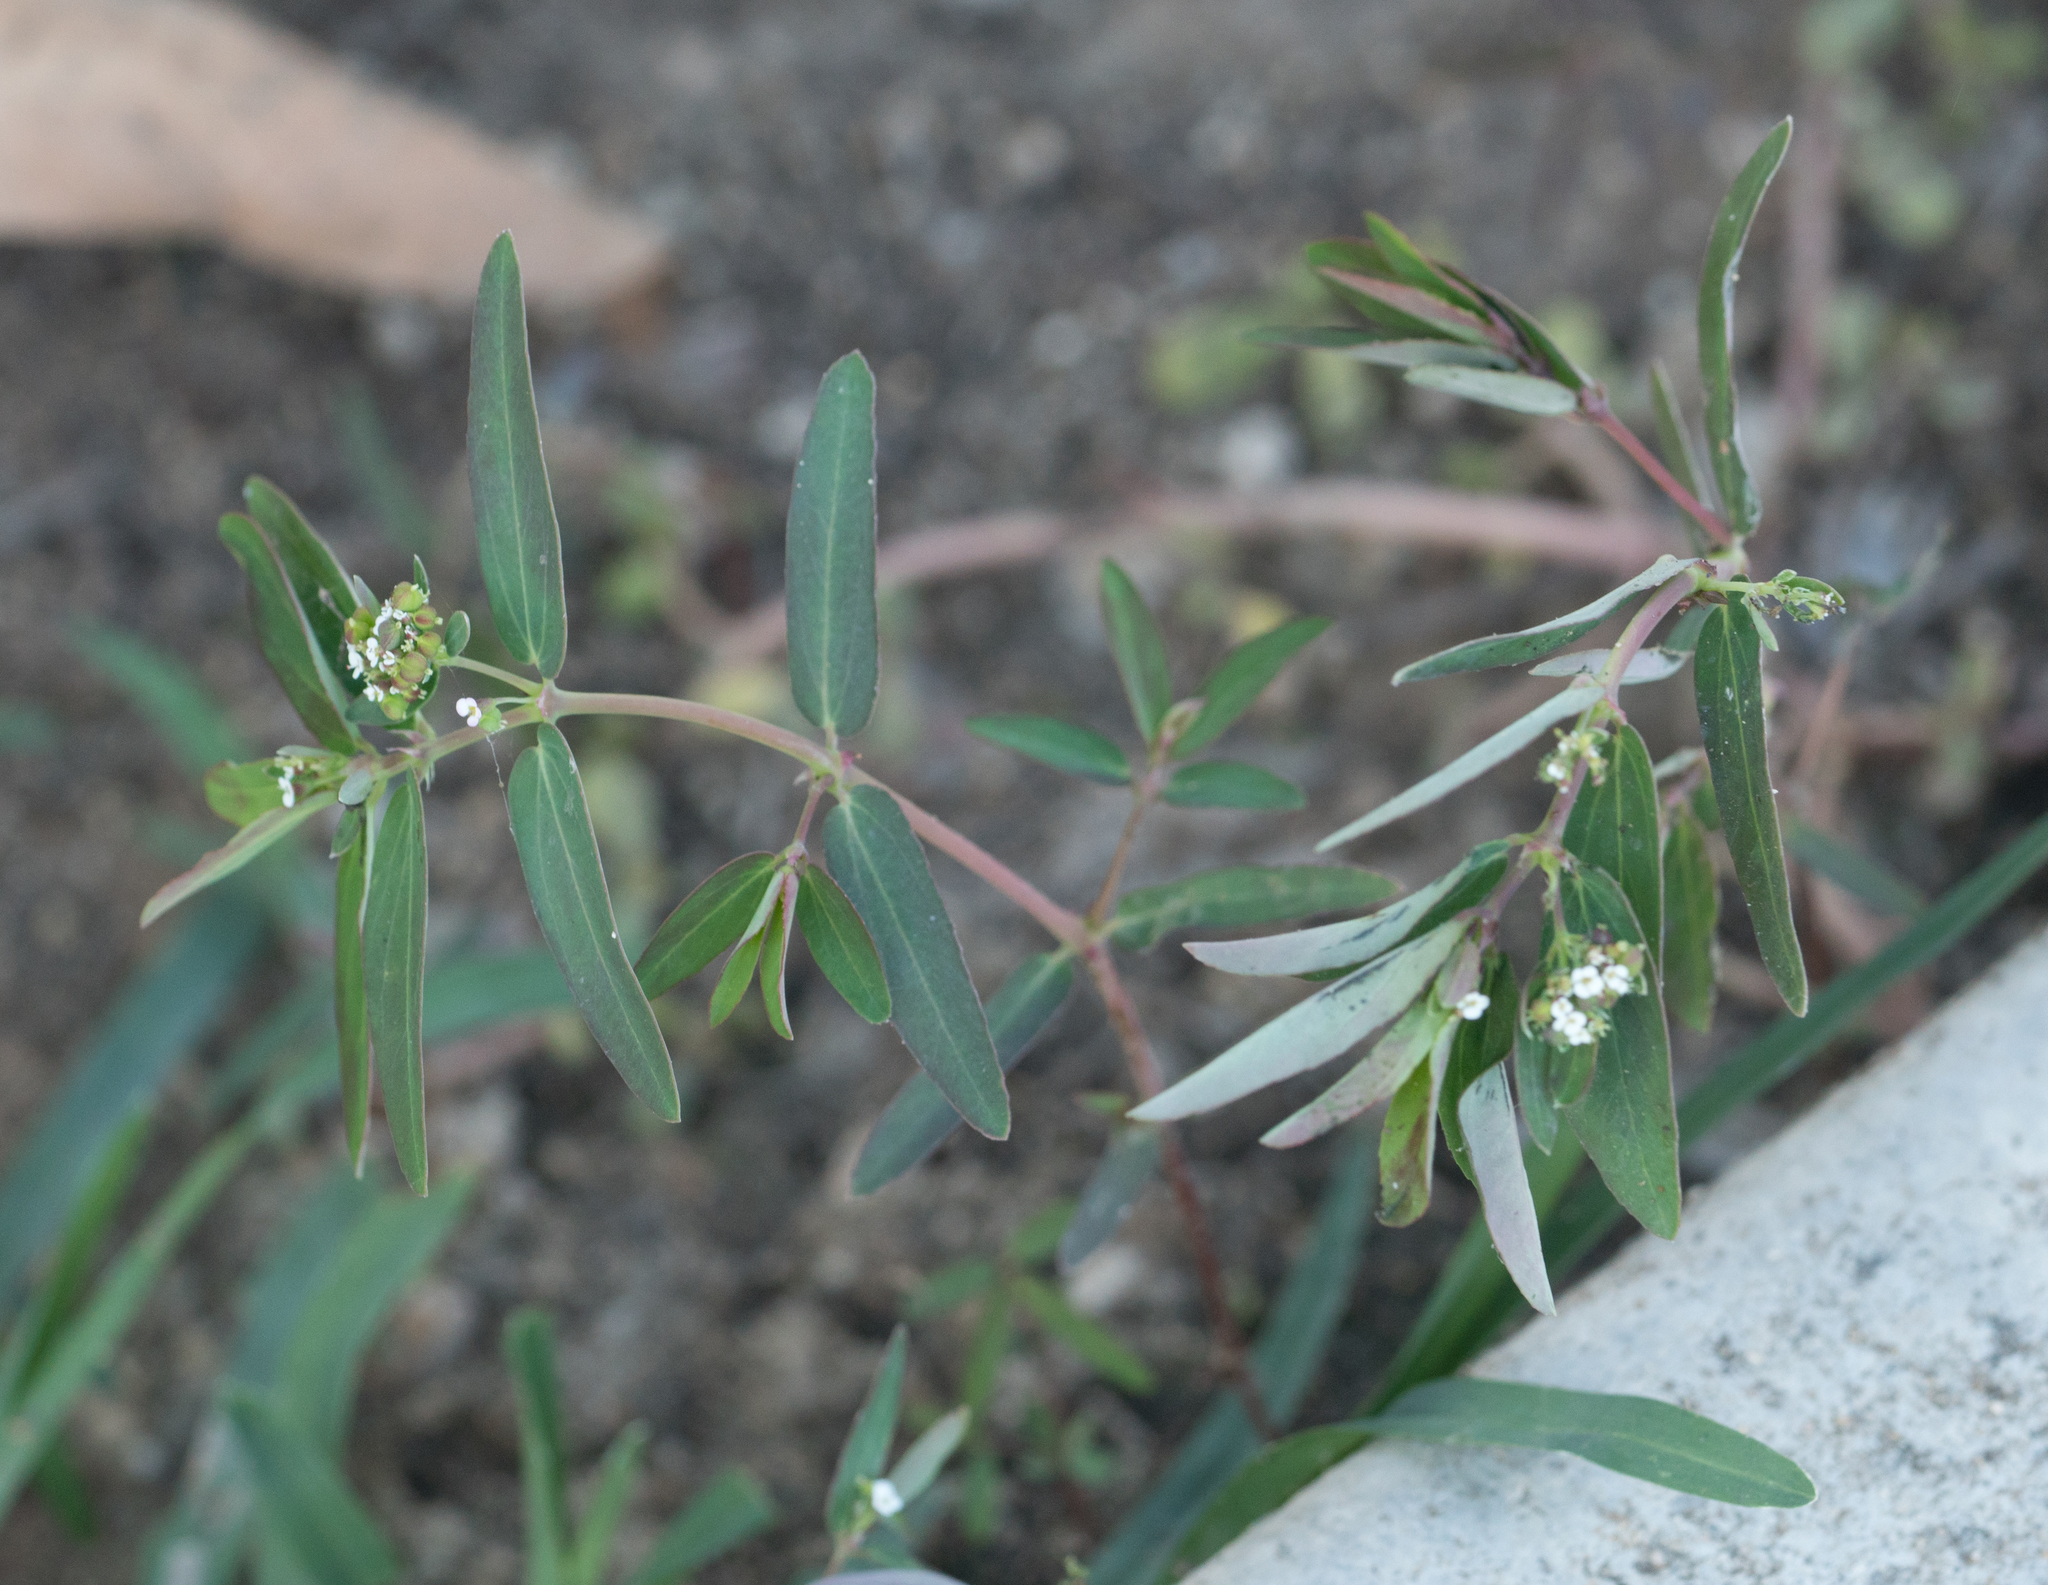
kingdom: Plantae
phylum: Tracheophyta
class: Magnoliopsida
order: Malpighiales
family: Euphorbiaceae
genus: Euphorbia
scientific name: Euphorbia hypericifolia
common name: Graceful sandmat
